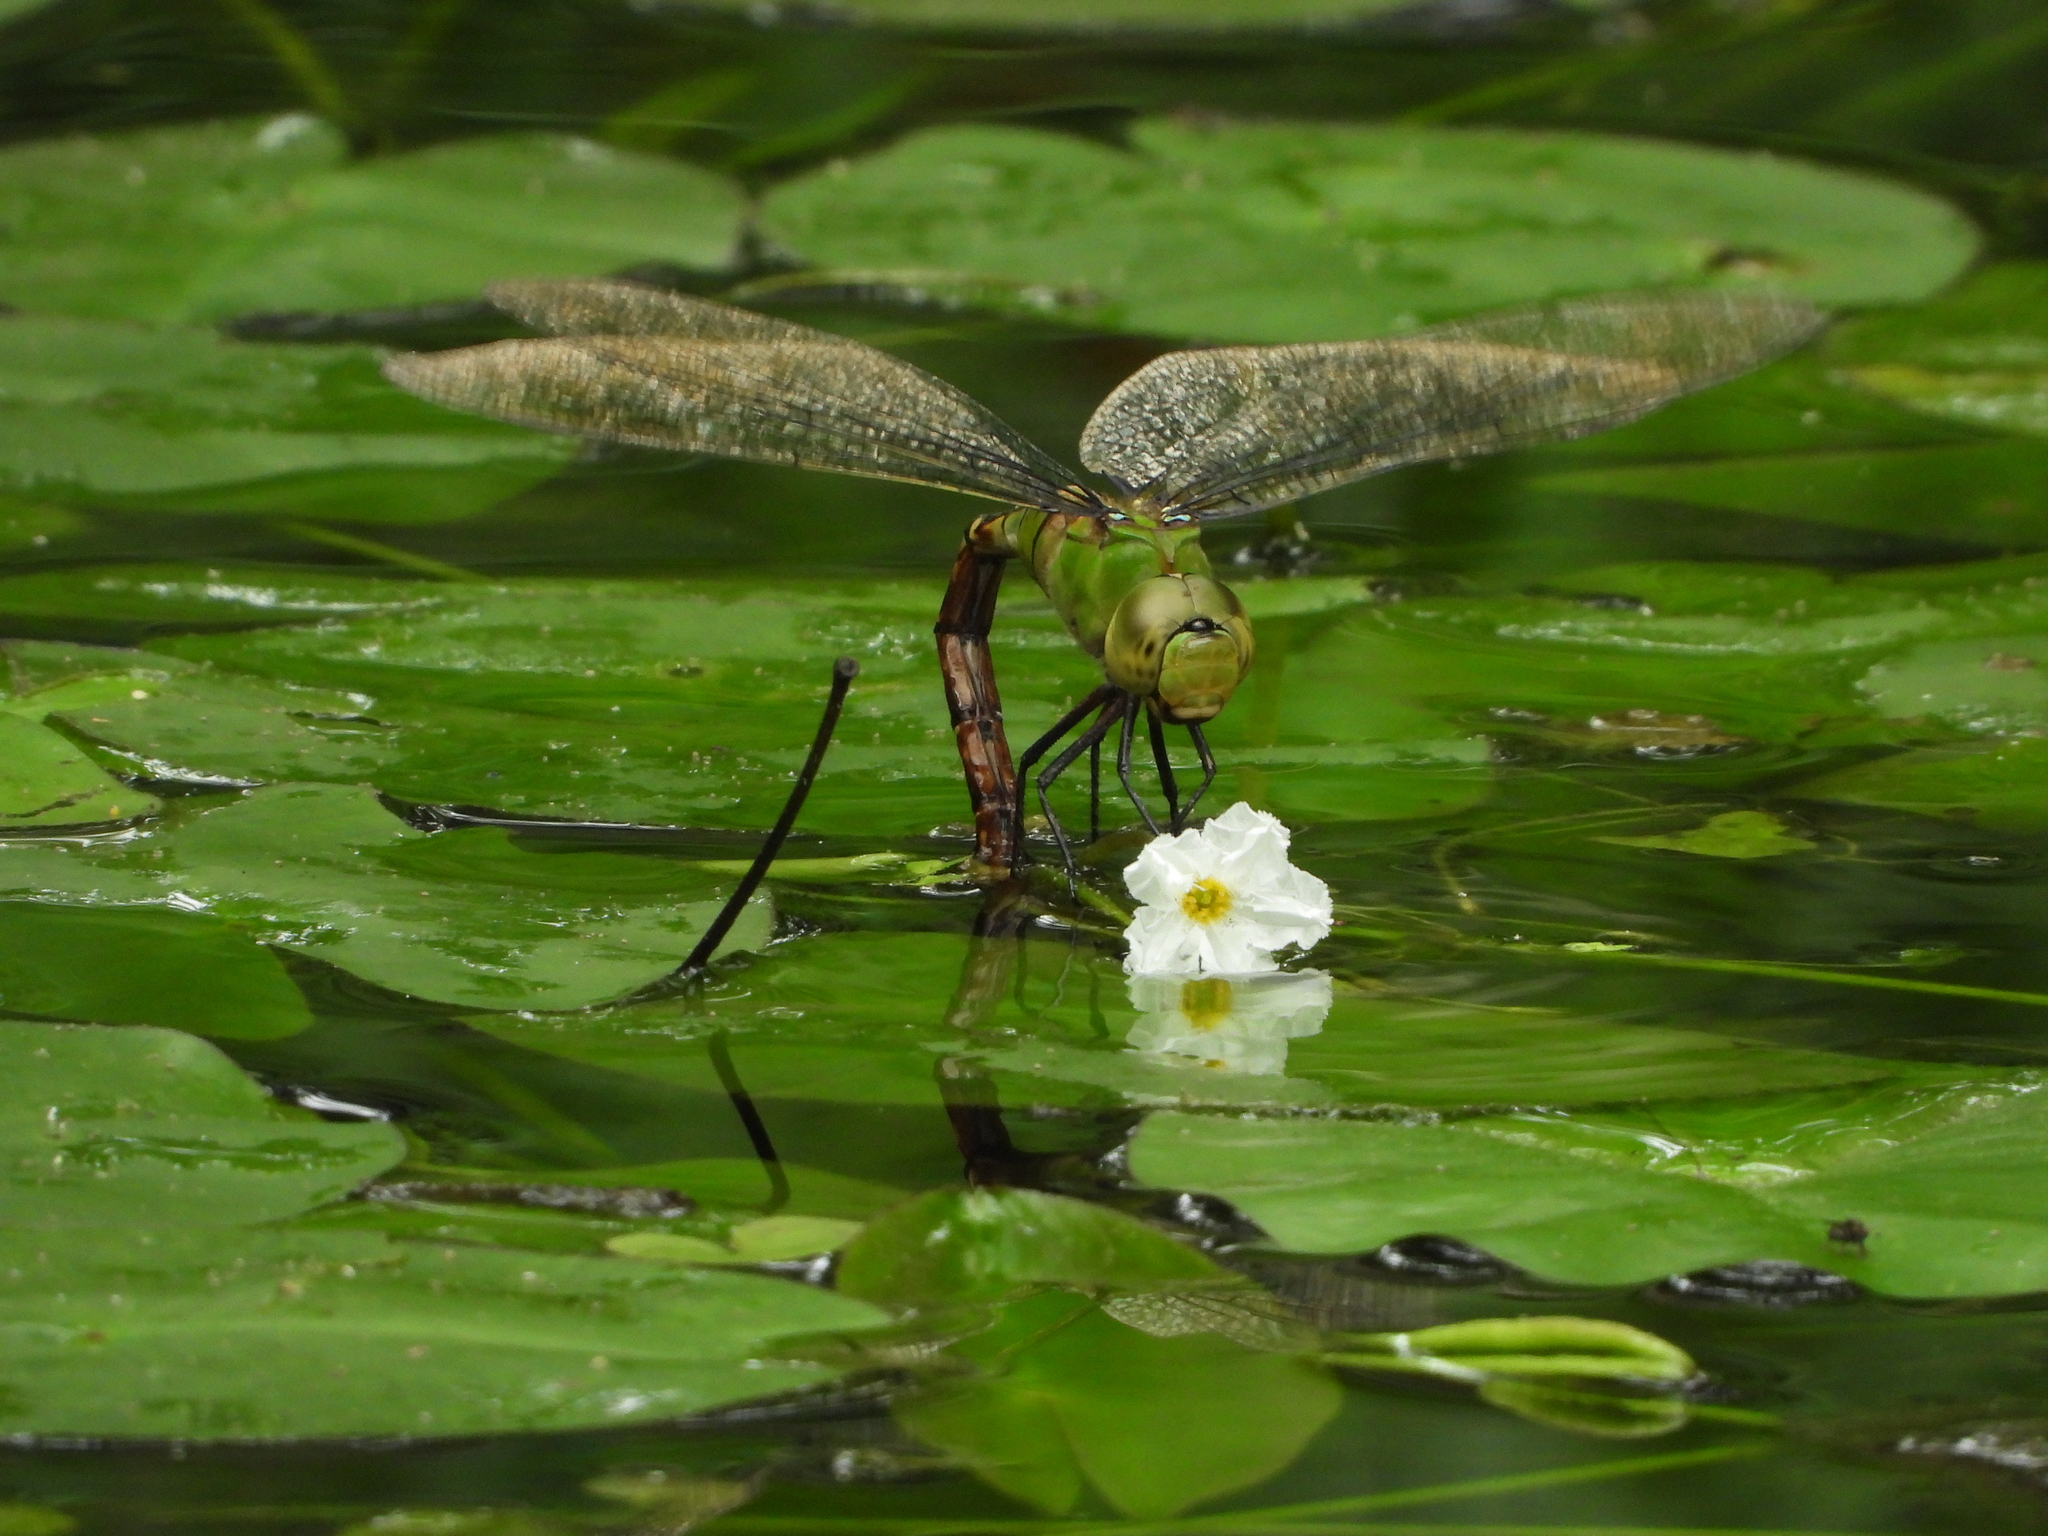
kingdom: Animalia
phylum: Arthropoda
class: Insecta
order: Odonata
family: Aeshnidae
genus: Anax
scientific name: Anax panybeus
